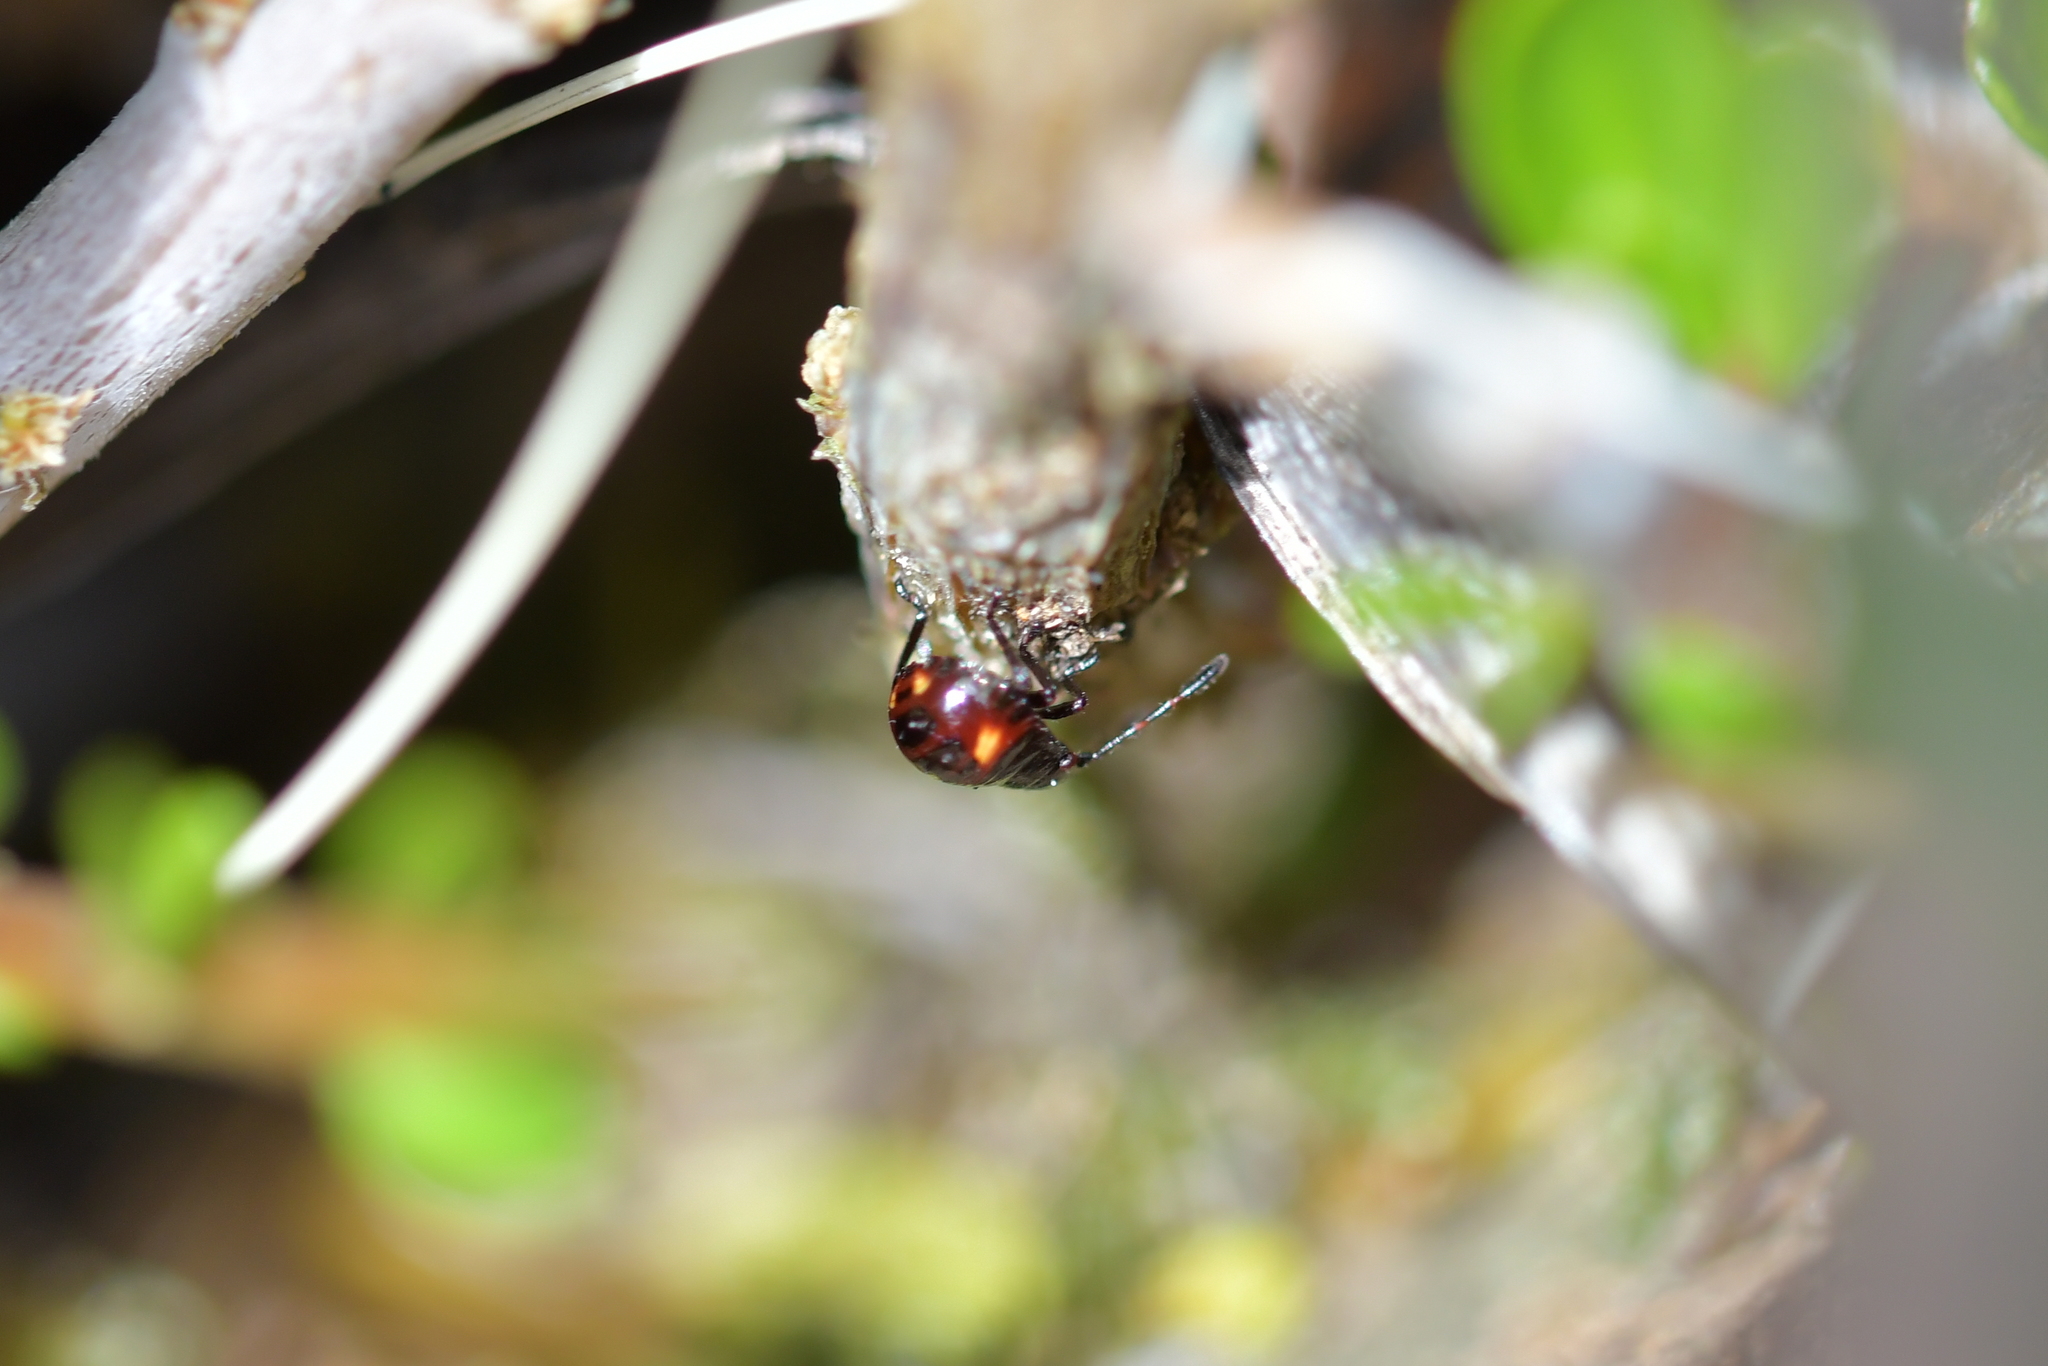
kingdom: Animalia
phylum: Arthropoda
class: Insecta
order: Hemiptera
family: Pentatomidae
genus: Cermatulus
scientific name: Cermatulus nasalis
